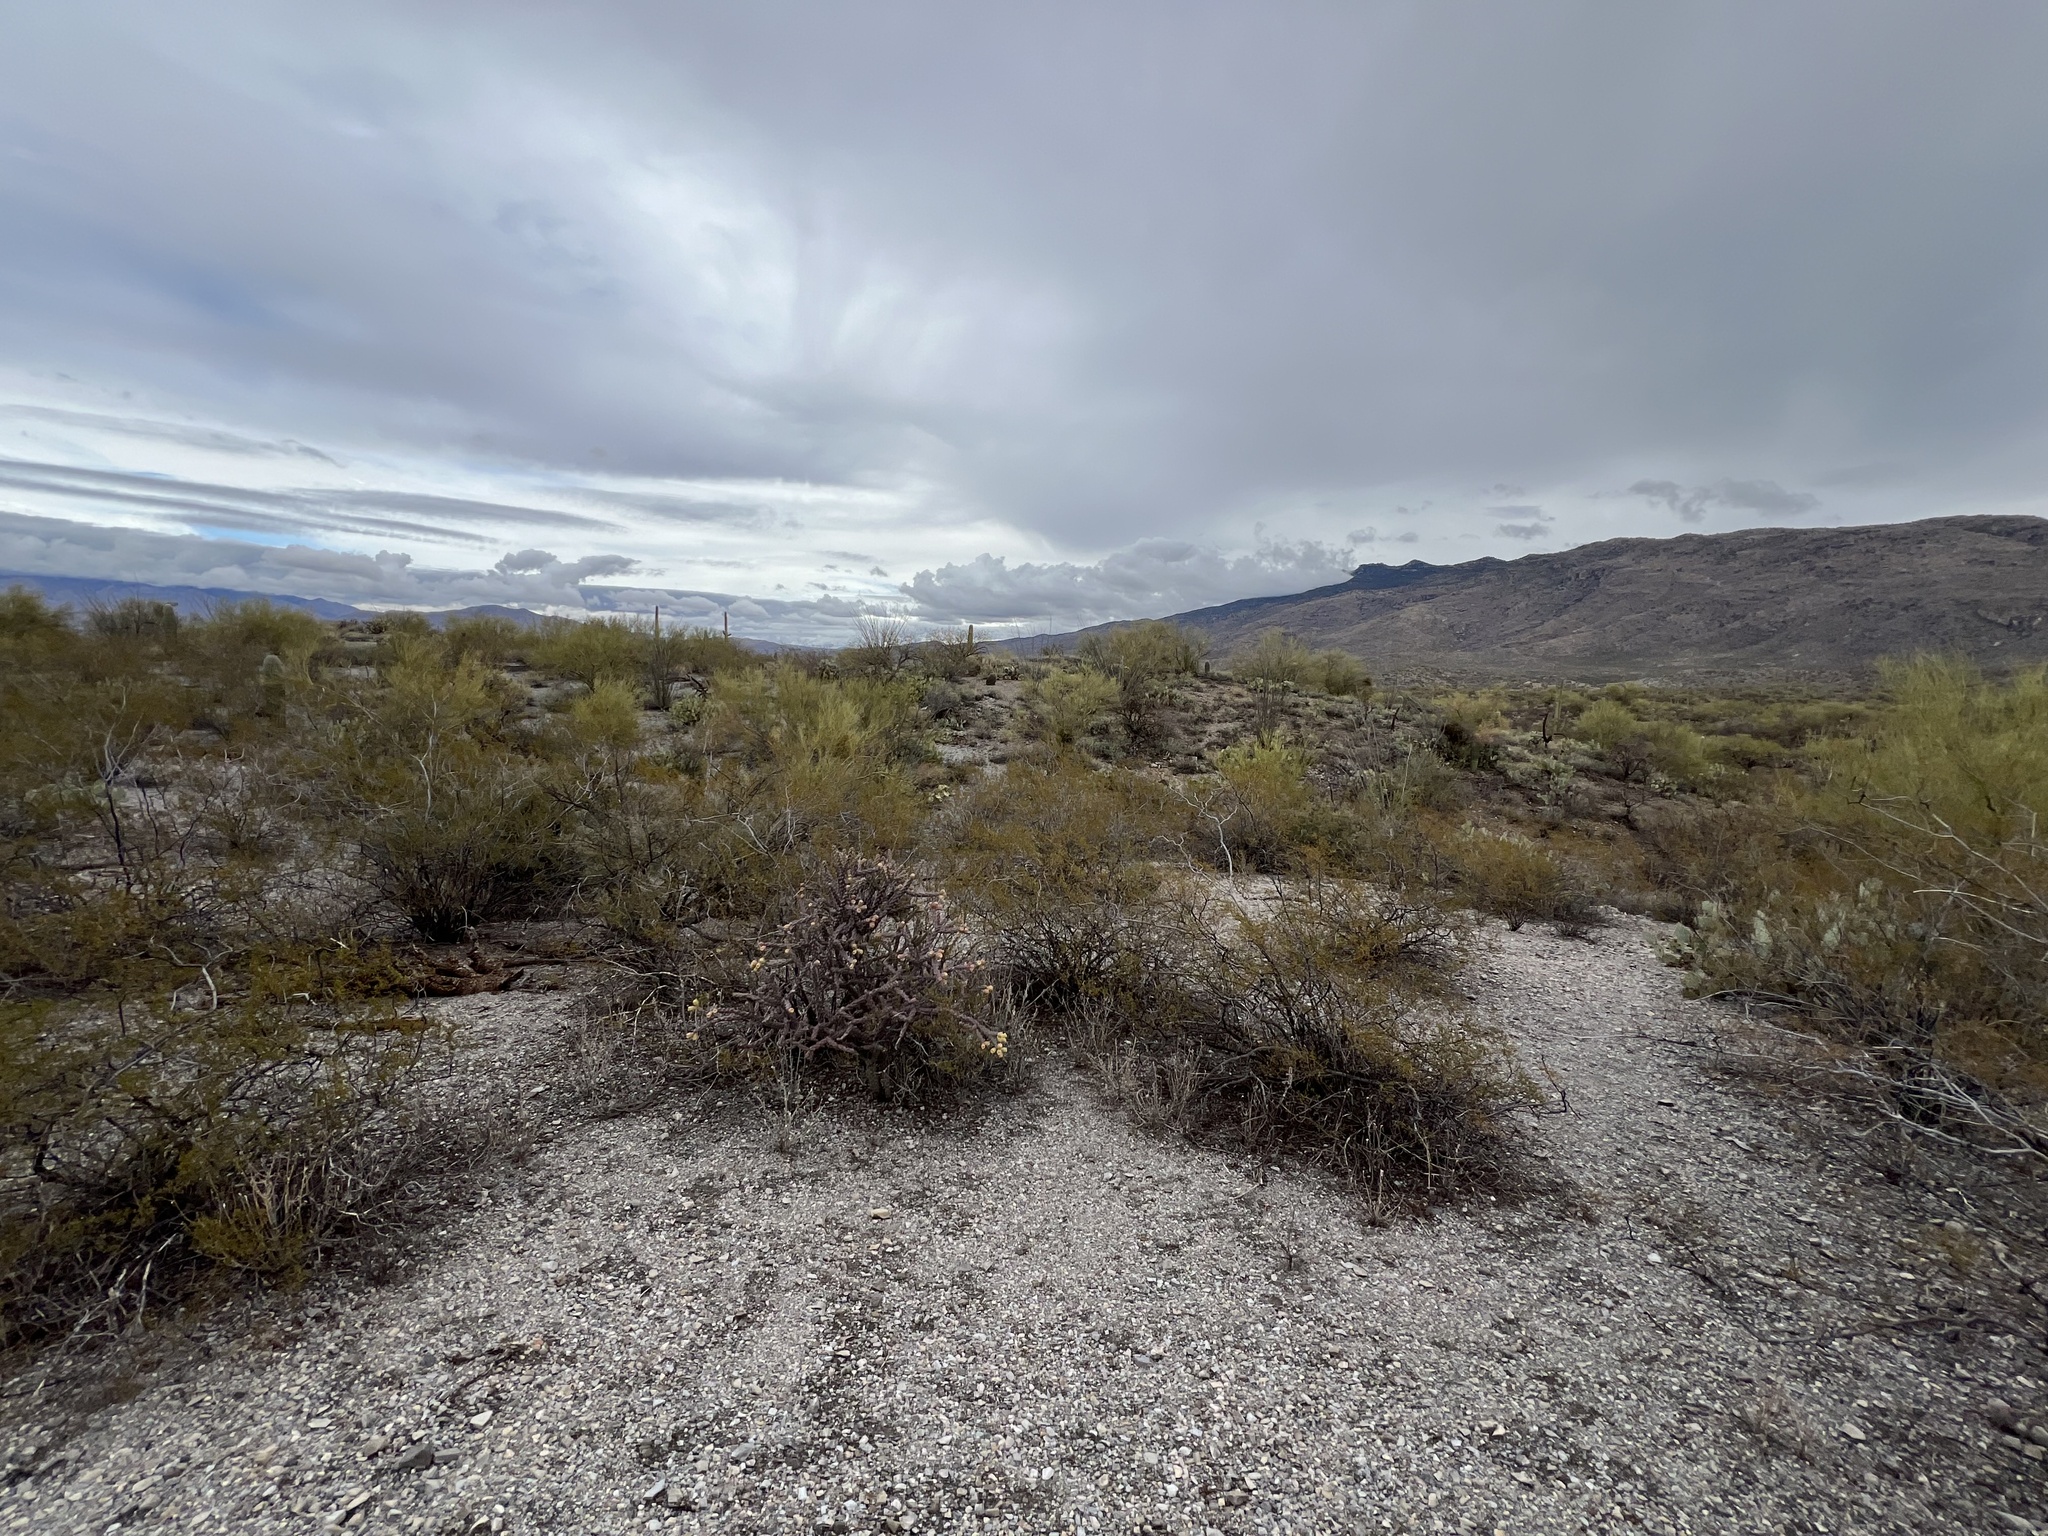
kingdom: Plantae
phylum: Tracheophyta
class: Magnoliopsida
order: Zygophyllales
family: Zygophyllaceae
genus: Larrea
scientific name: Larrea tridentata
